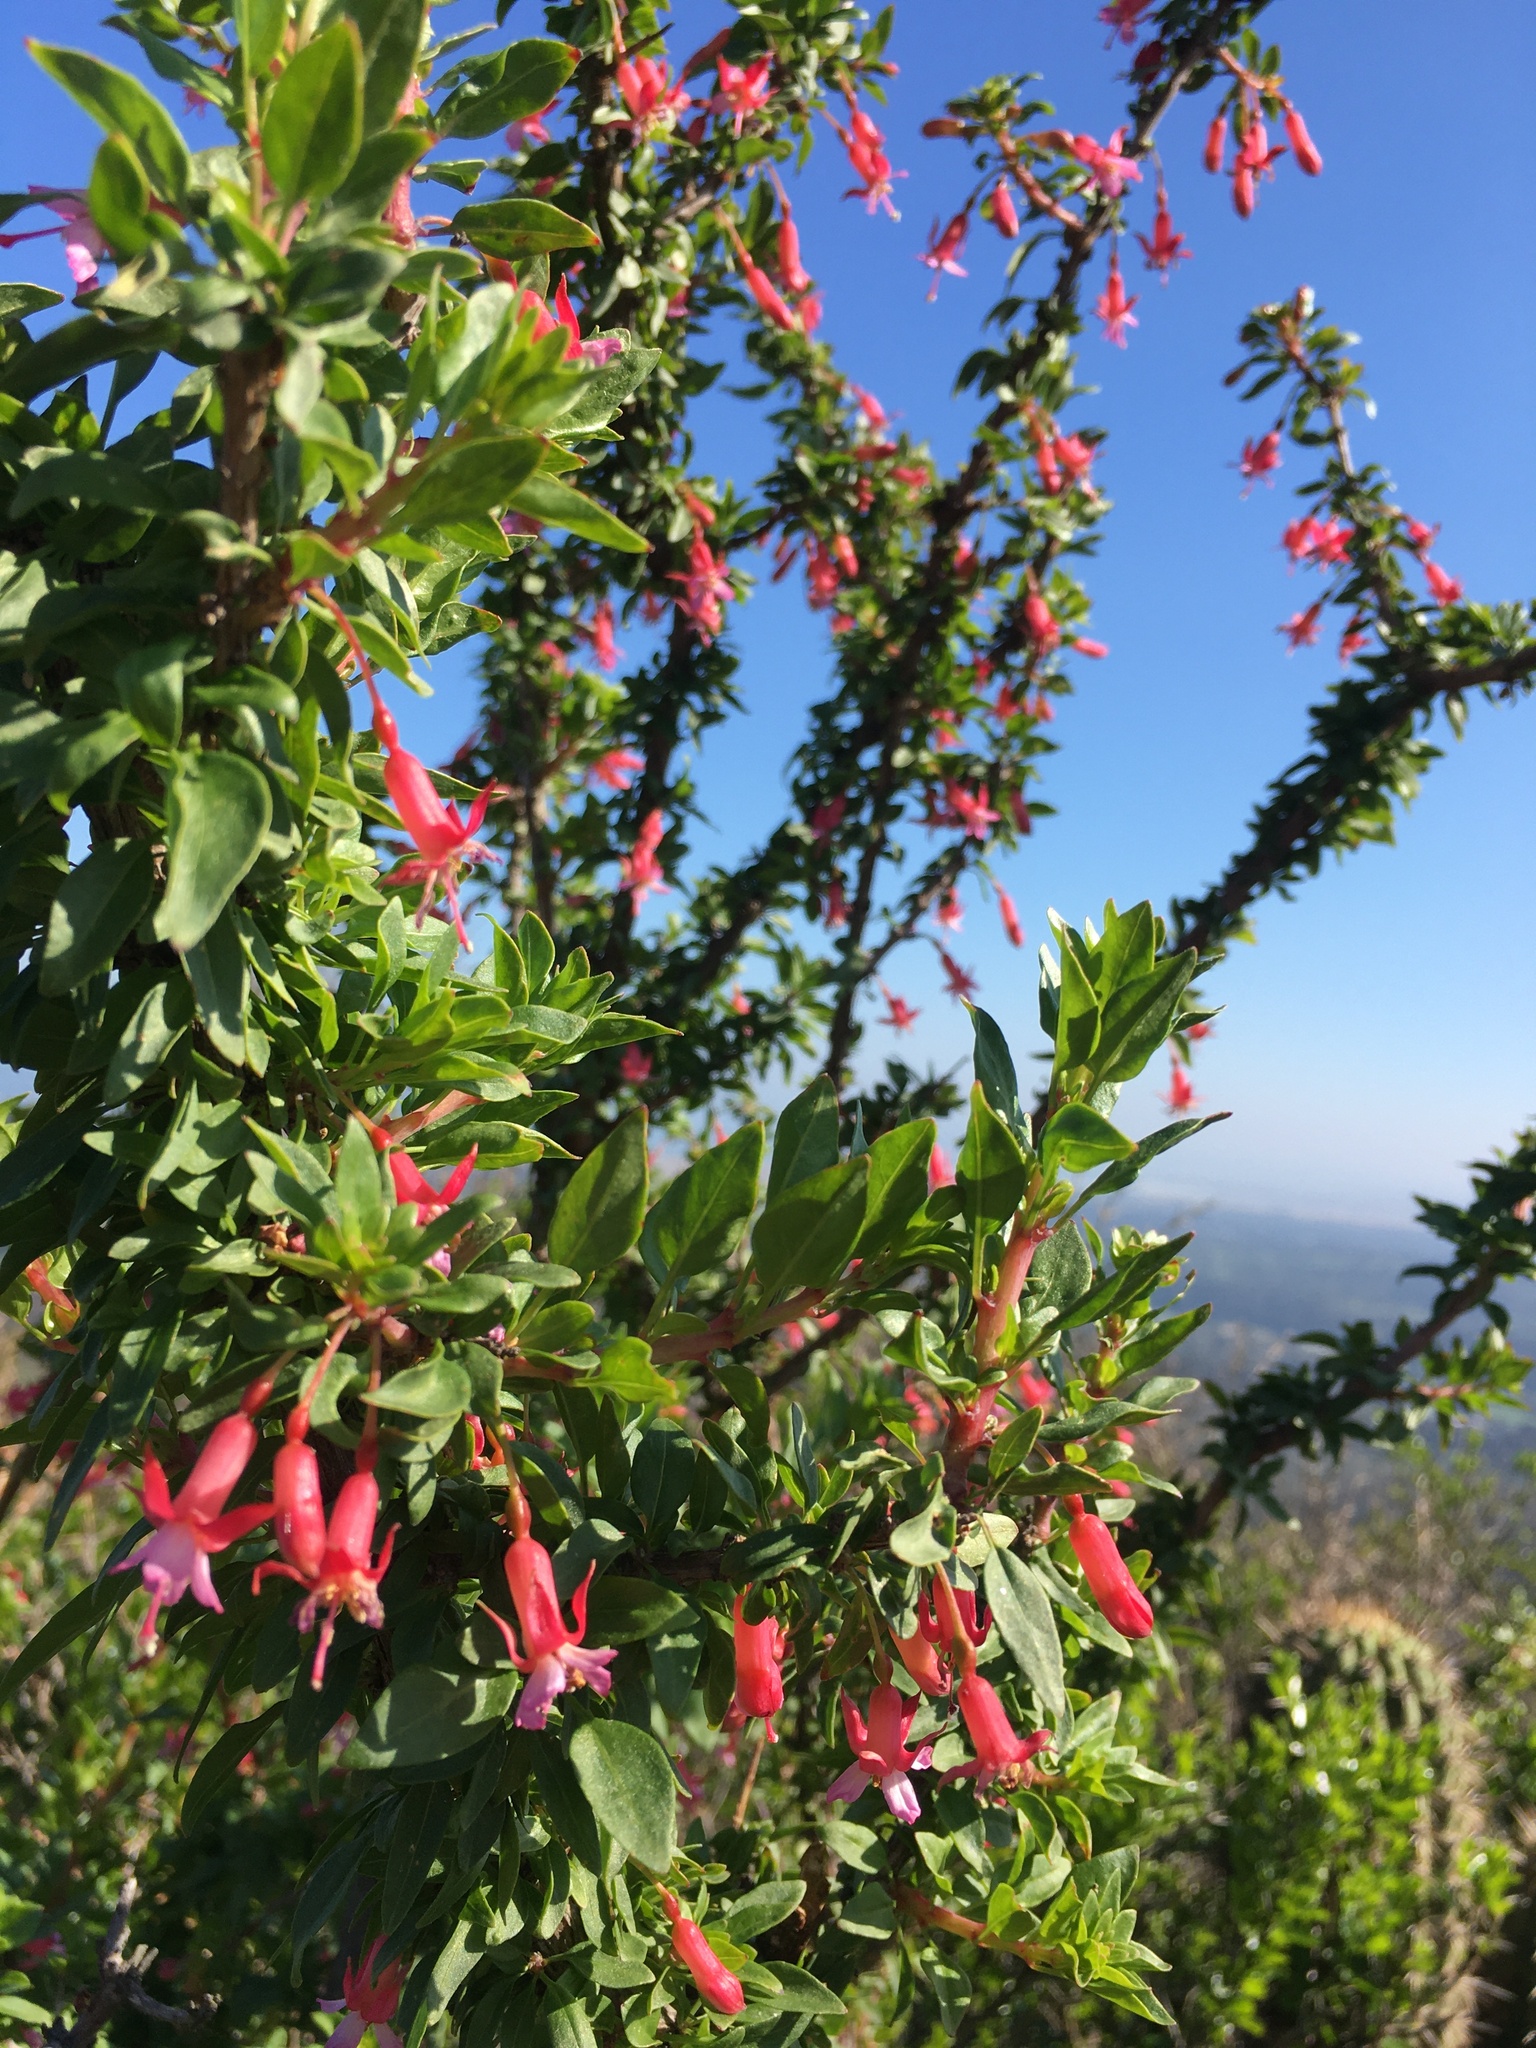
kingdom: Plantae
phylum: Tracheophyta
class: Magnoliopsida
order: Myrtales
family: Onagraceae
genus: Fuchsia
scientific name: Fuchsia lycioides
